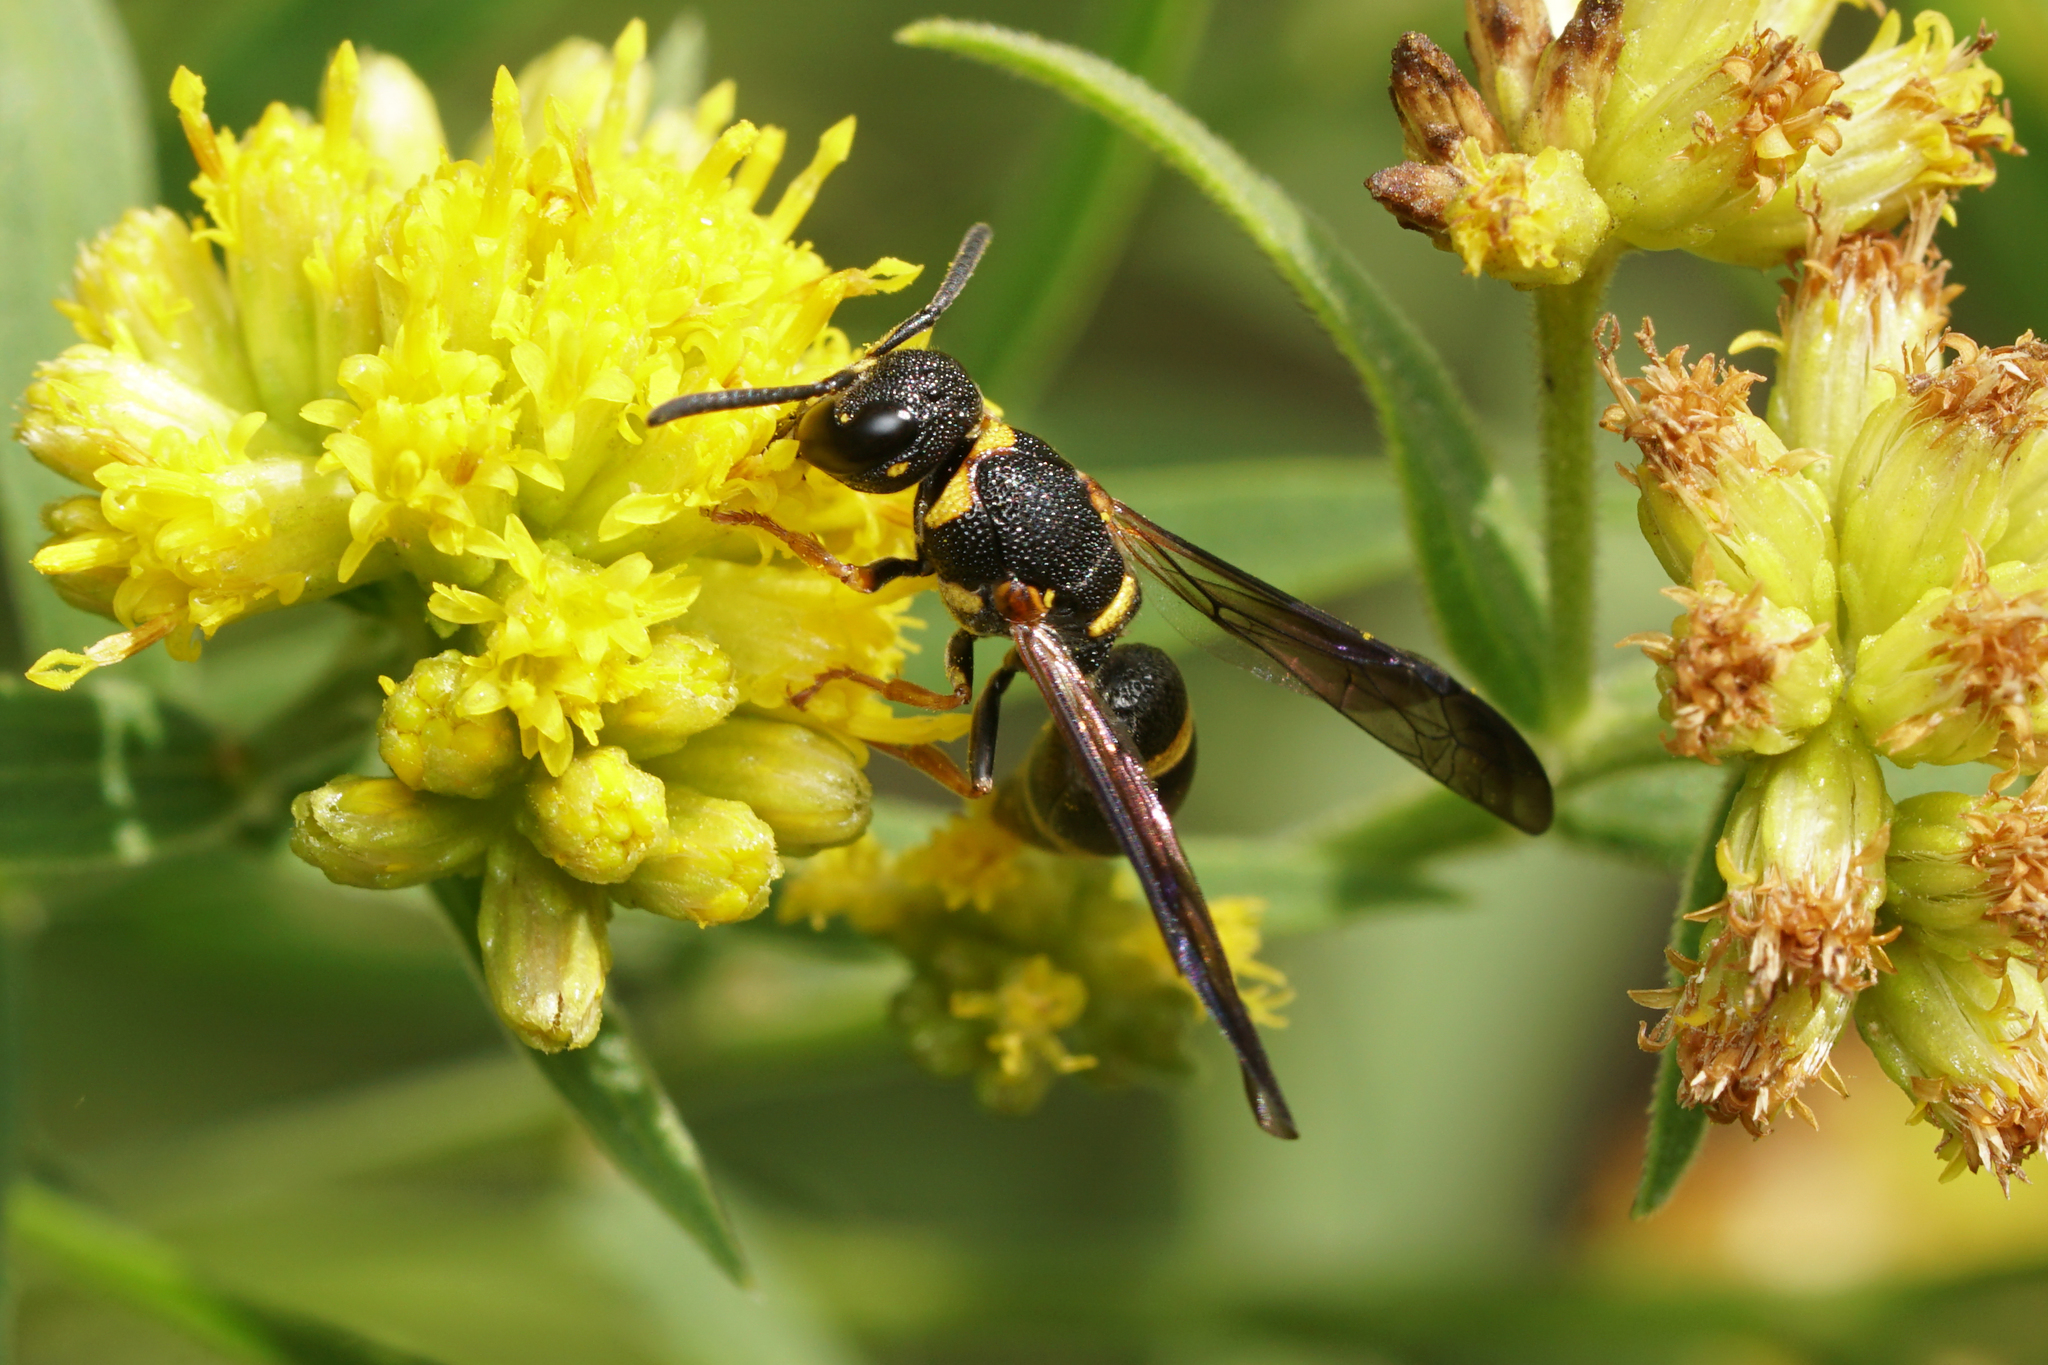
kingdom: Animalia
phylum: Arthropoda
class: Insecta
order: Hymenoptera
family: Eumenidae
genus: Parancistrocerus
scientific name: Parancistrocerus perennis
